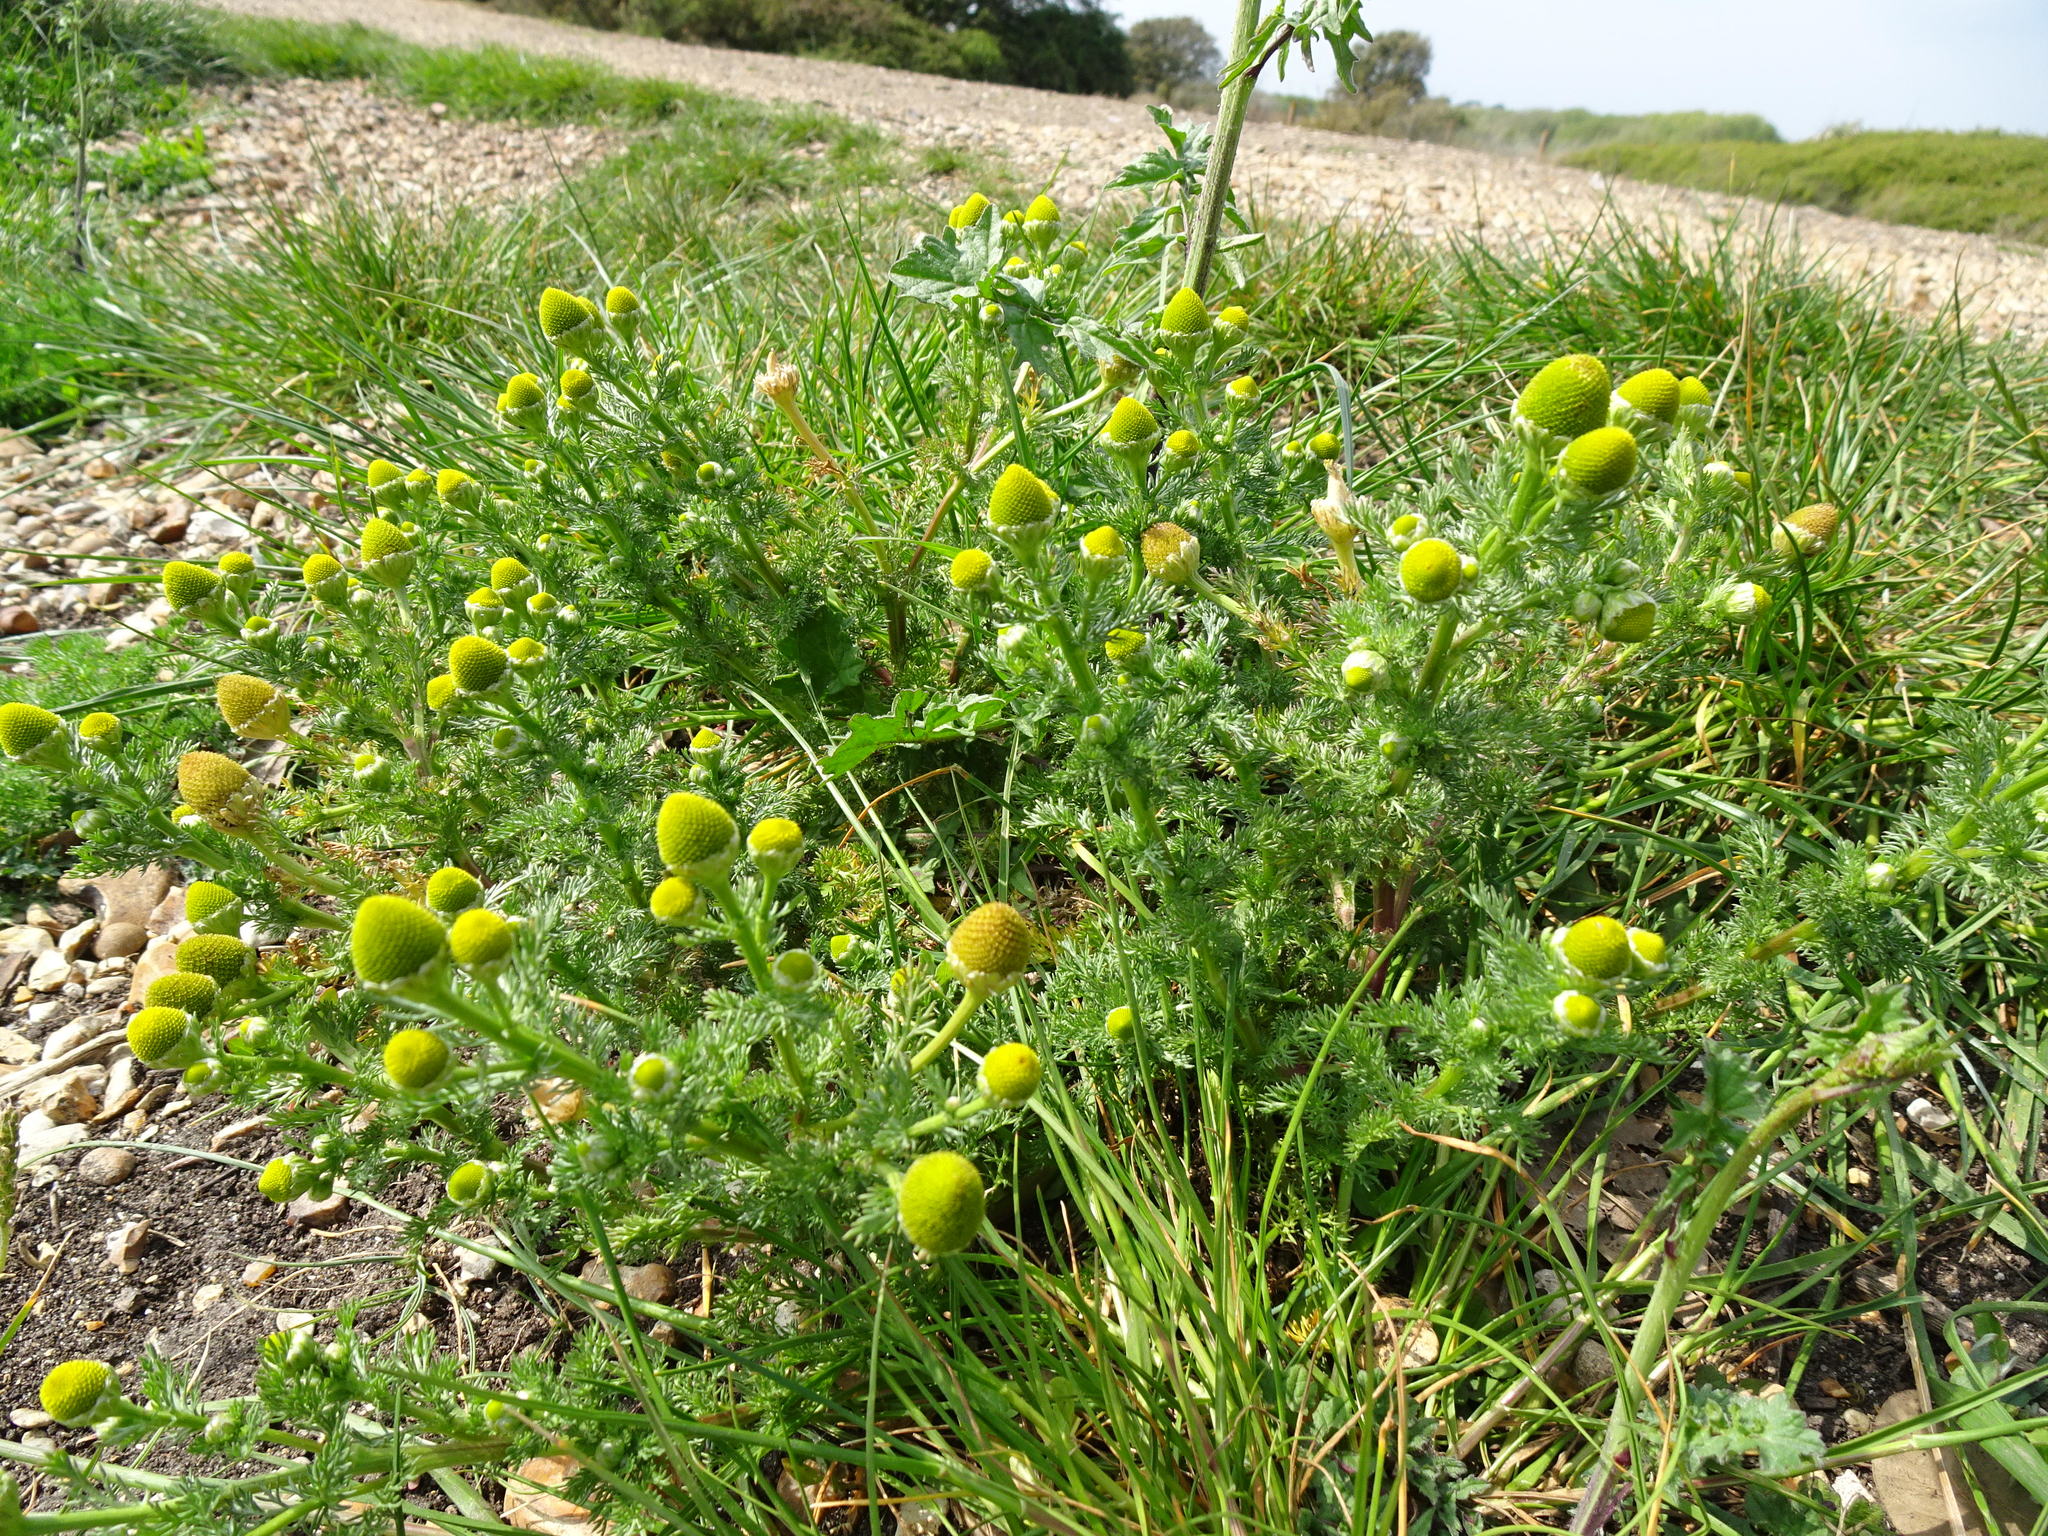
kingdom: Plantae
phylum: Tracheophyta
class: Magnoliopsida
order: Asterales
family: Asteraceae
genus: Matricaria
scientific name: Matricaria discoidea
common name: Disc mayweed
